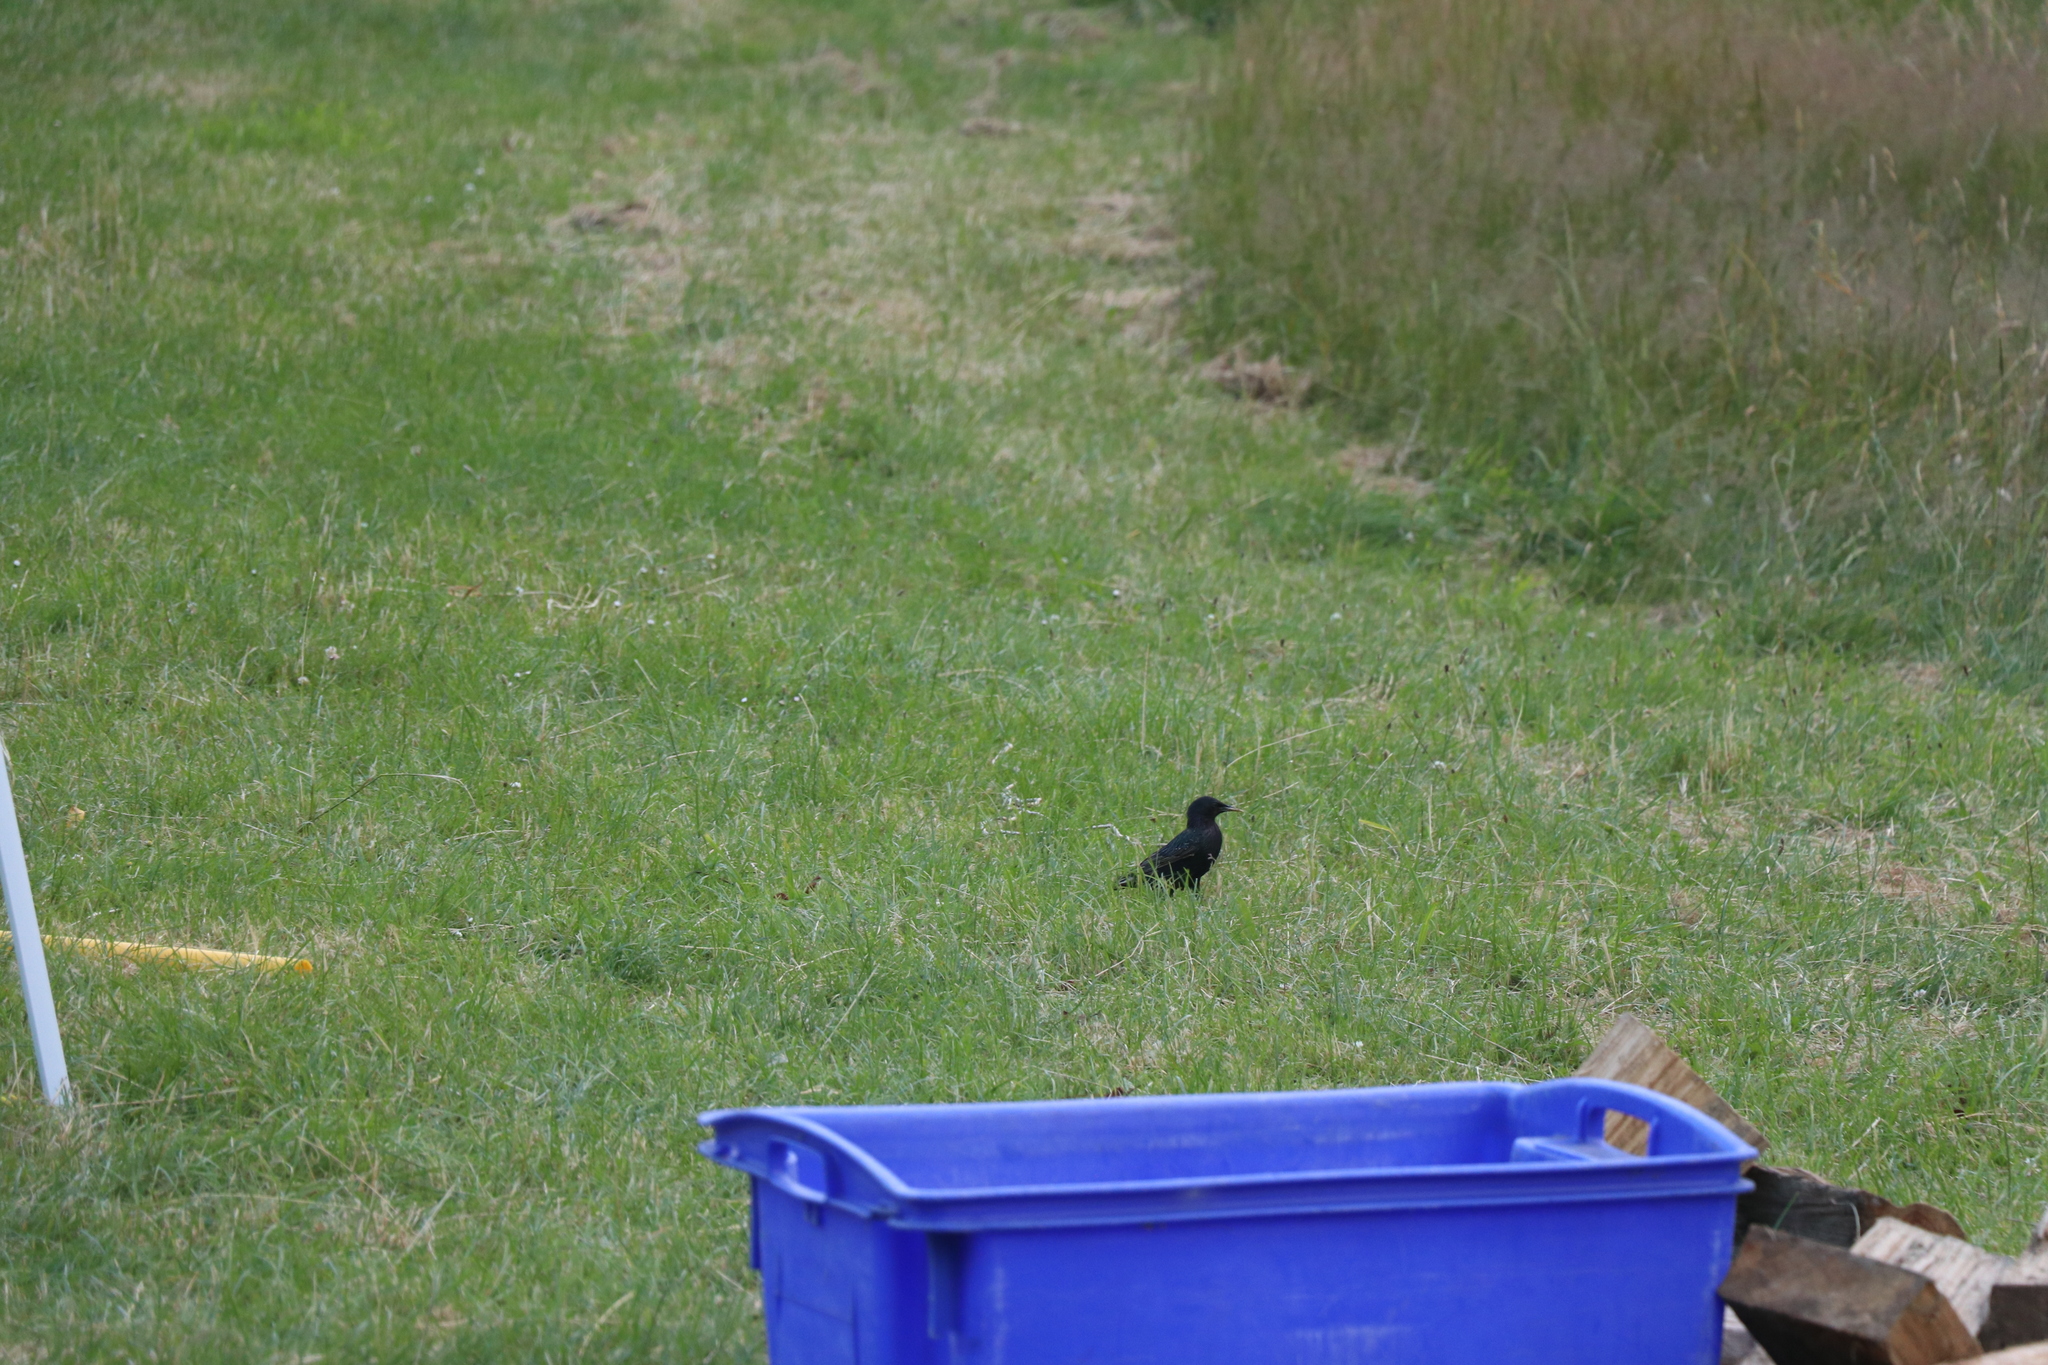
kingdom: Animalia
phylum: Chordata
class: Aves
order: Passeriformes
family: Sturnidae
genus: Sturnus
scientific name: Sturnus vulgaris
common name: Common starling
